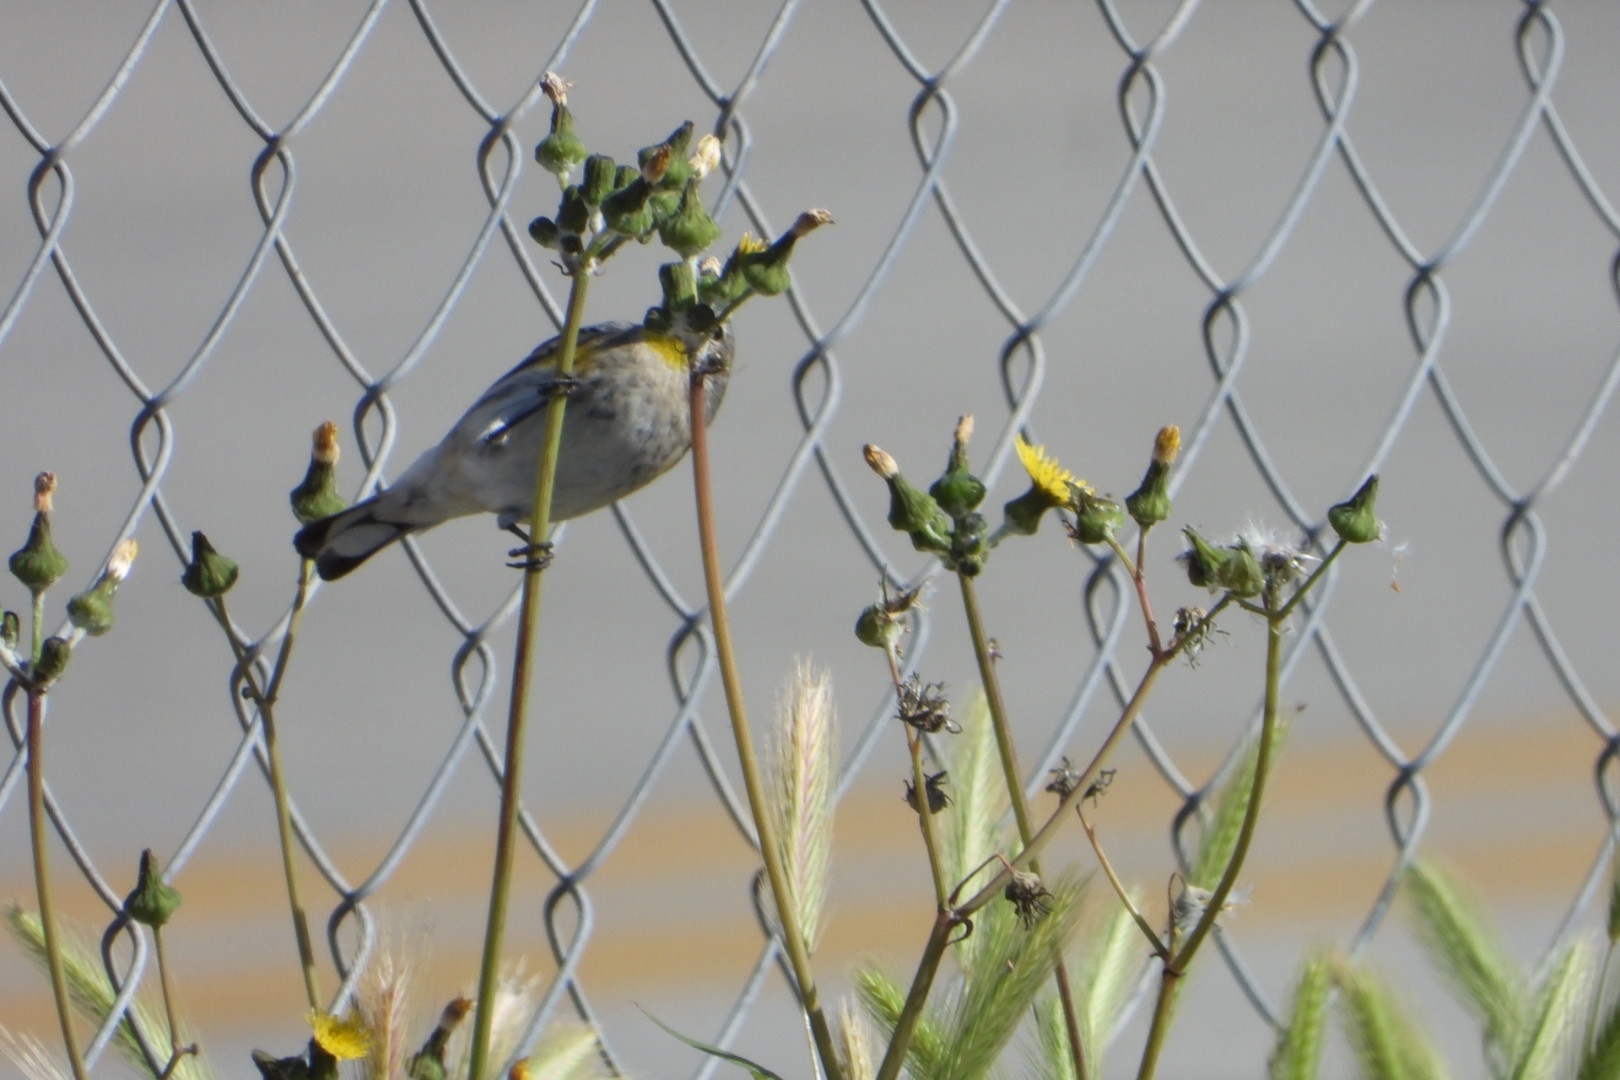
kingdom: Animalia
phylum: Chordata
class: Aves
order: Passeriformes
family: Parulidae
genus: Setophaga
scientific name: Setophaga coronata
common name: Myrtle warbler
